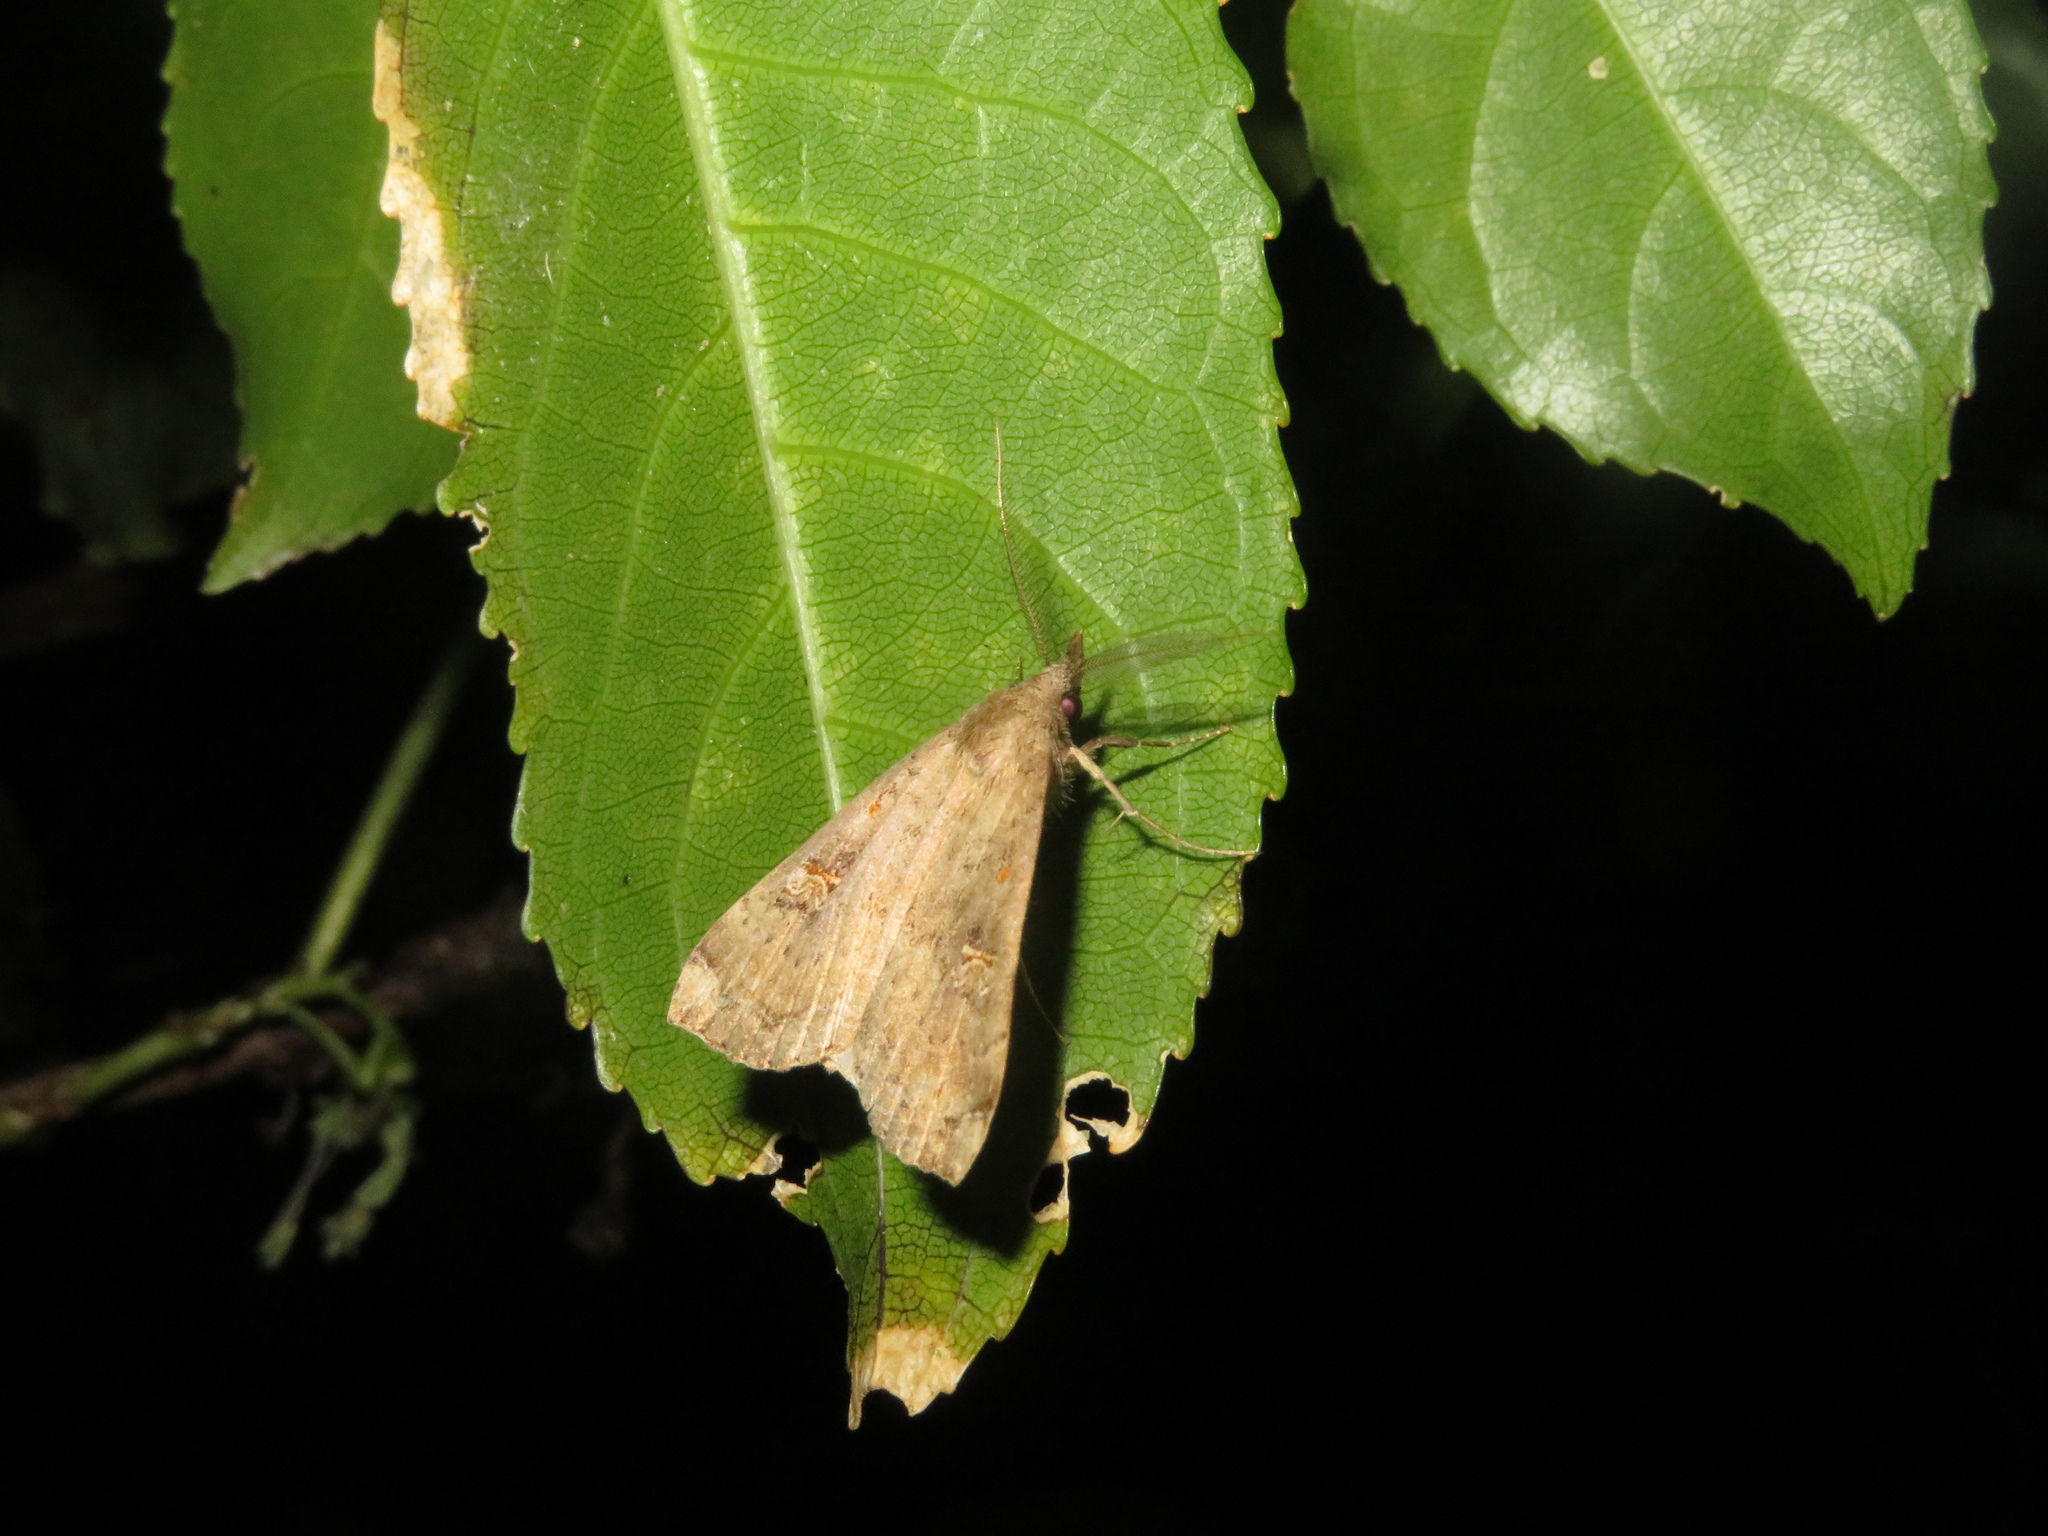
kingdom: Animalia
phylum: Arthropoda
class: Insecta
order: Lepidoptera
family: Erebidae
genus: Rhapsa
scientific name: Rhapsa scotosialis
